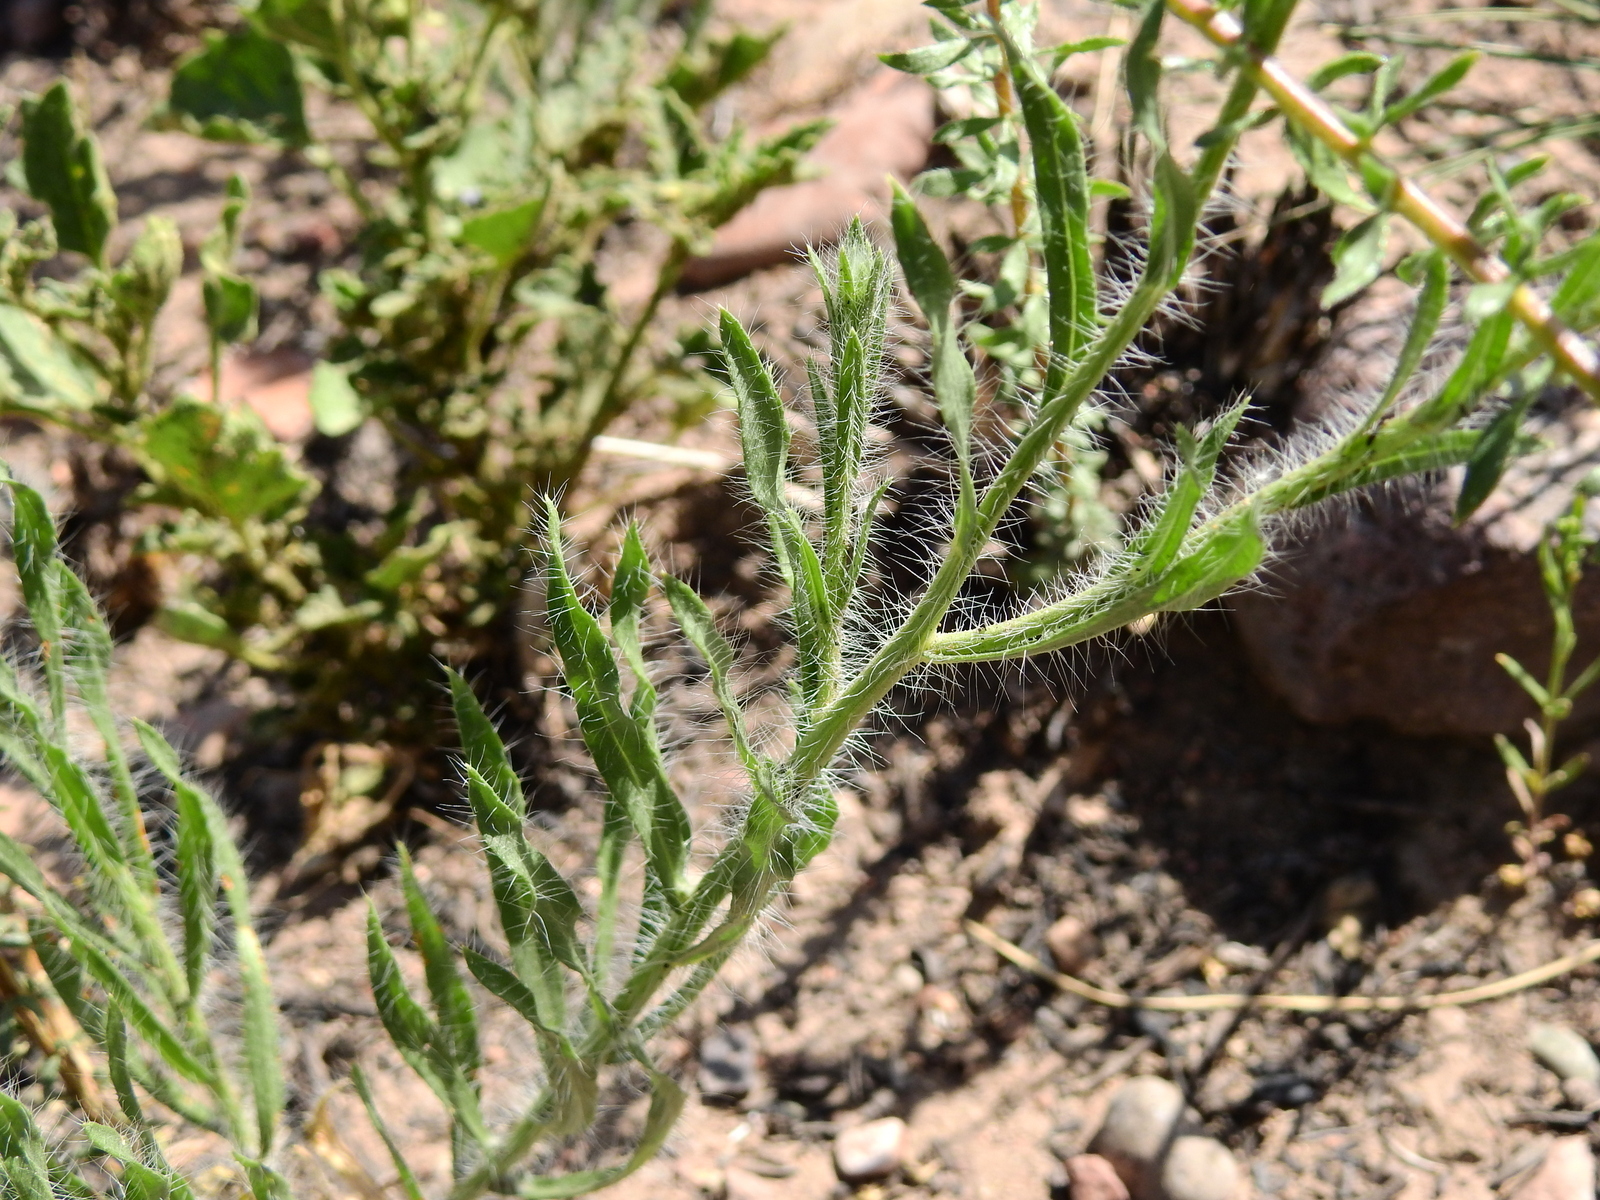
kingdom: Plantae
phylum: Tracheophyta
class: Magnoliopsida
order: Asterales
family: Asteraceae
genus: Hysterionica
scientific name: Hysterionica jasionoides
